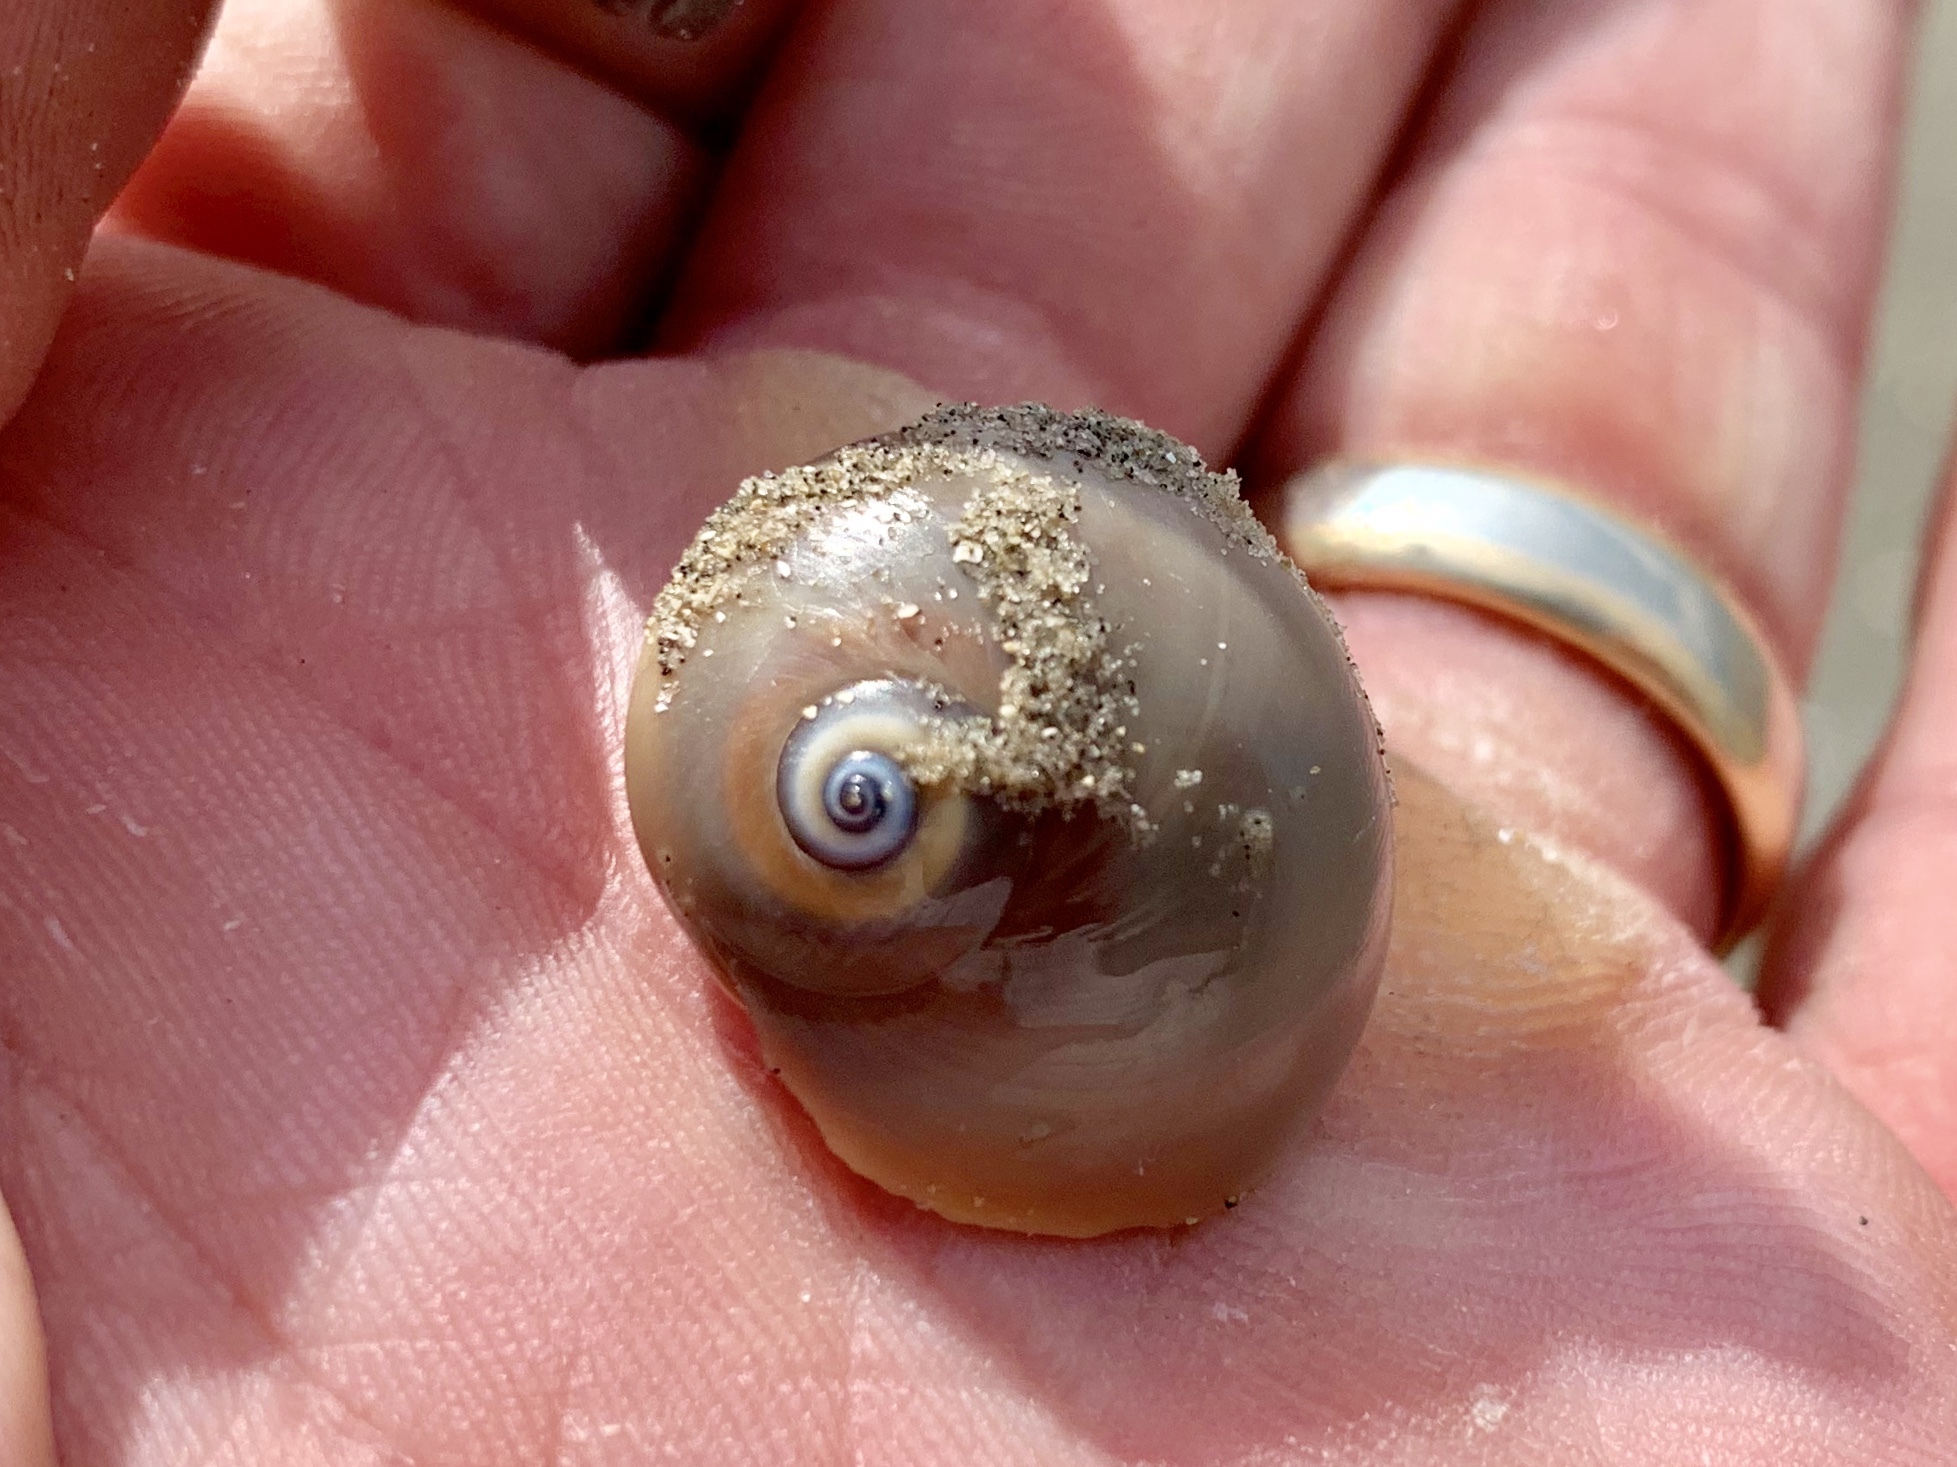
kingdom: Animalia
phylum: Mollusca
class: Gastropoda
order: Littorinimorpha
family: Naticidae
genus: Neverita
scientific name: Neverita duplicata
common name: Lobed moonsnail
